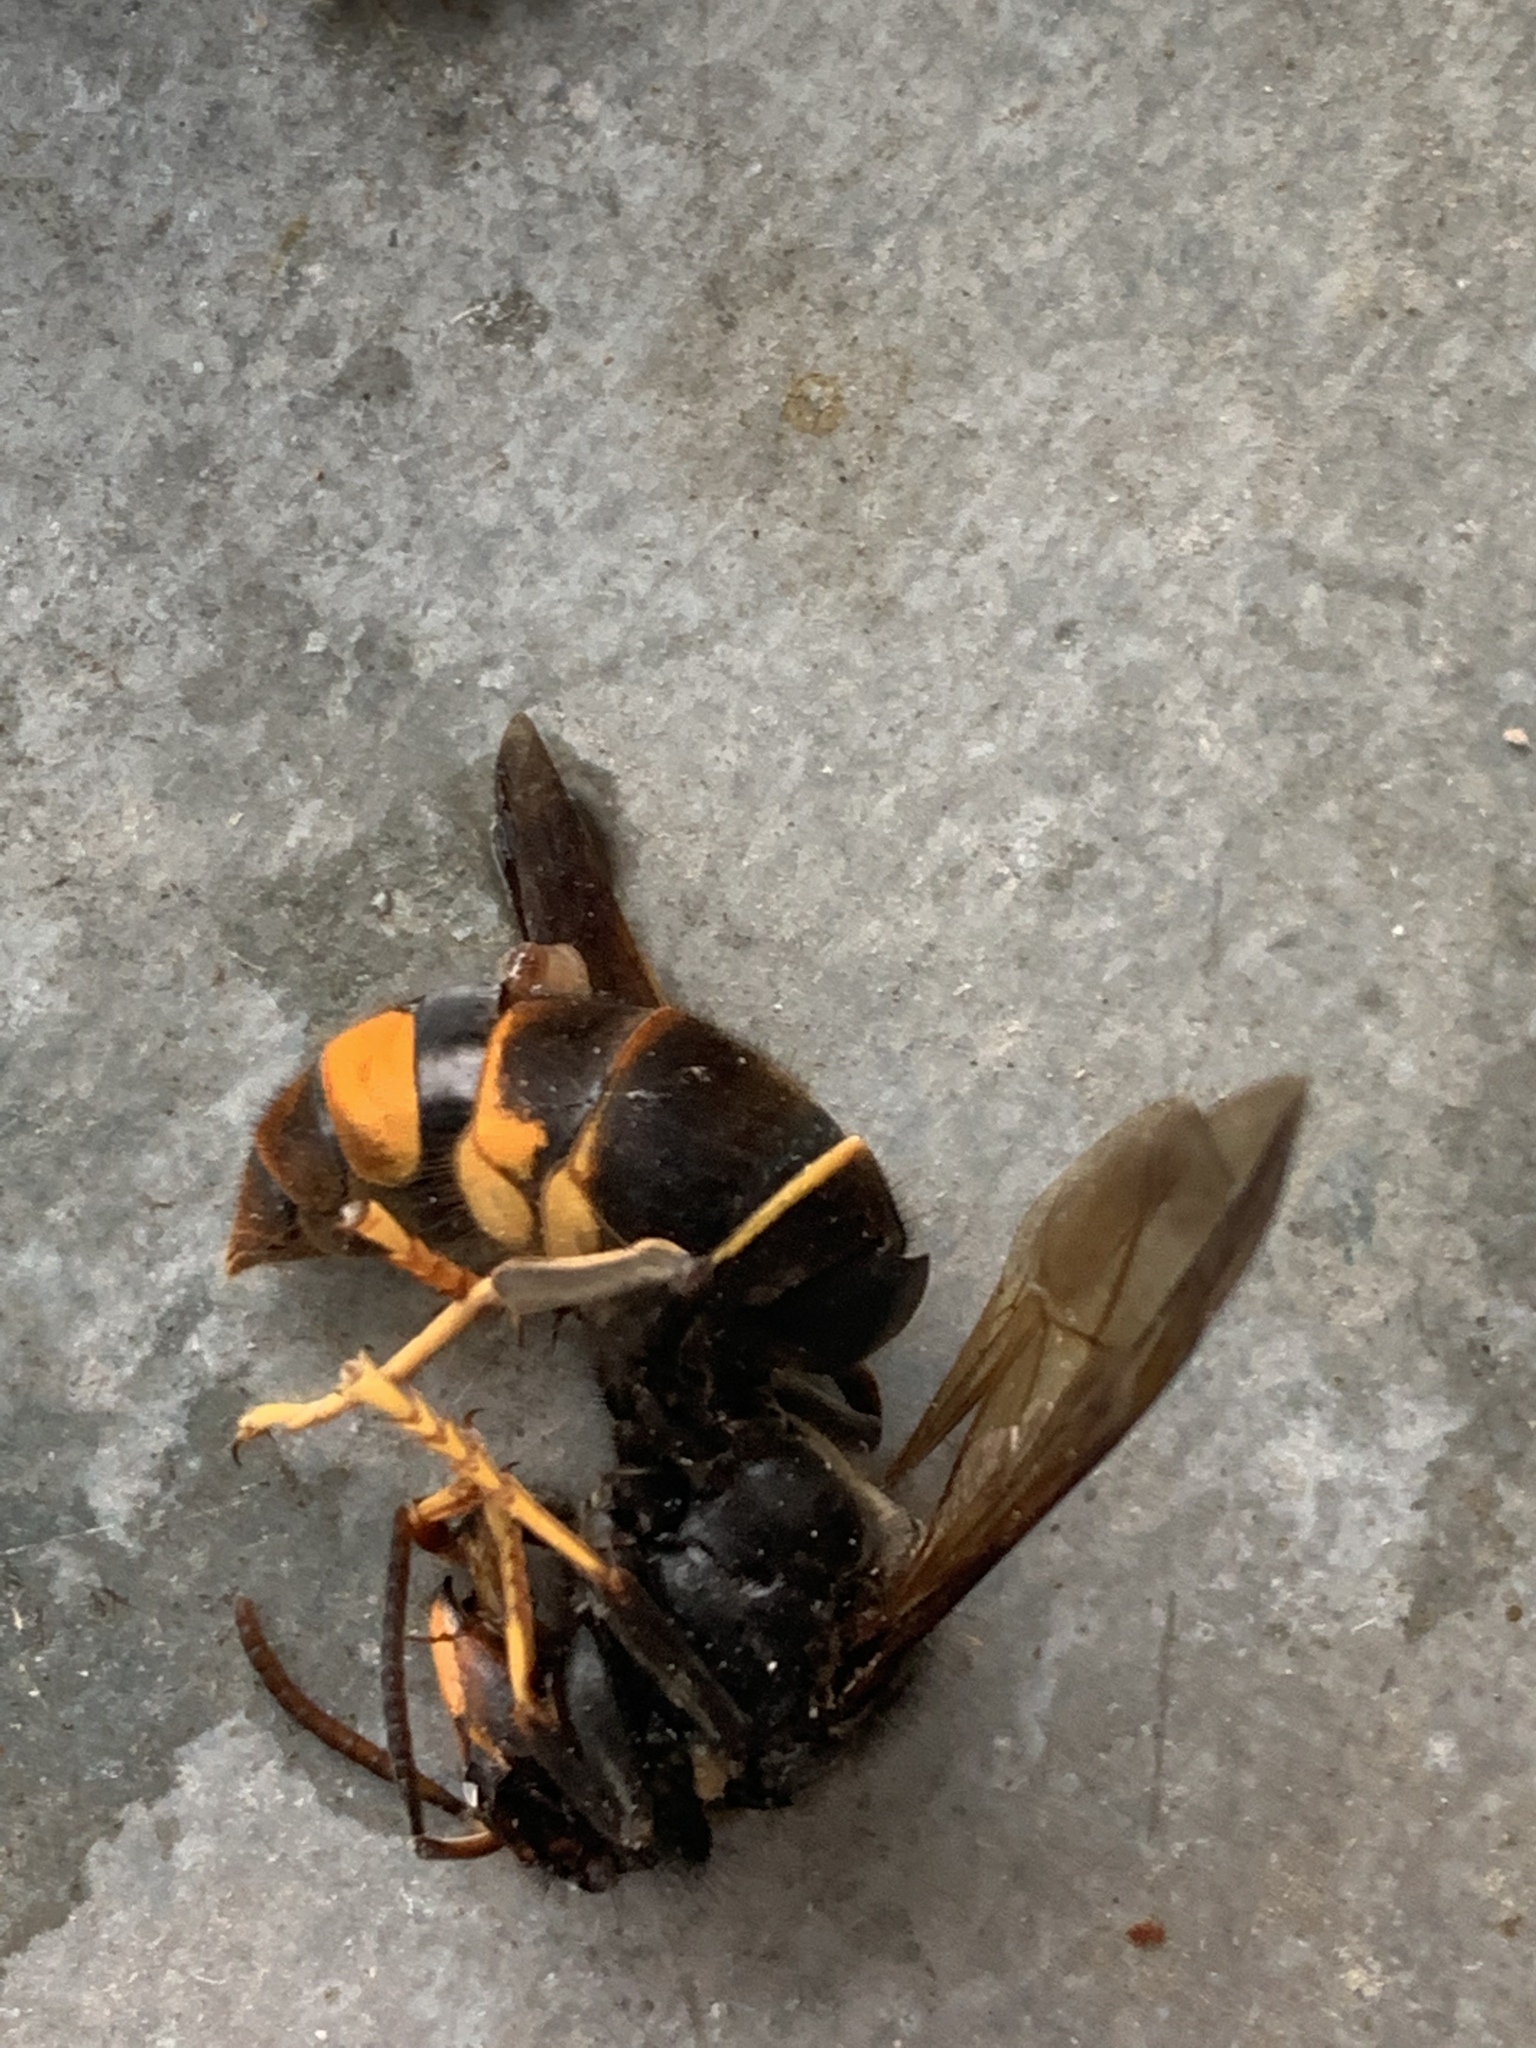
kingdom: Animalia
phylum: Arthropoda
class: Insecta
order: Hymenoptera
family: Vespidae
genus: Vespa
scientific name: Vespa velutina
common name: Asian hornet
